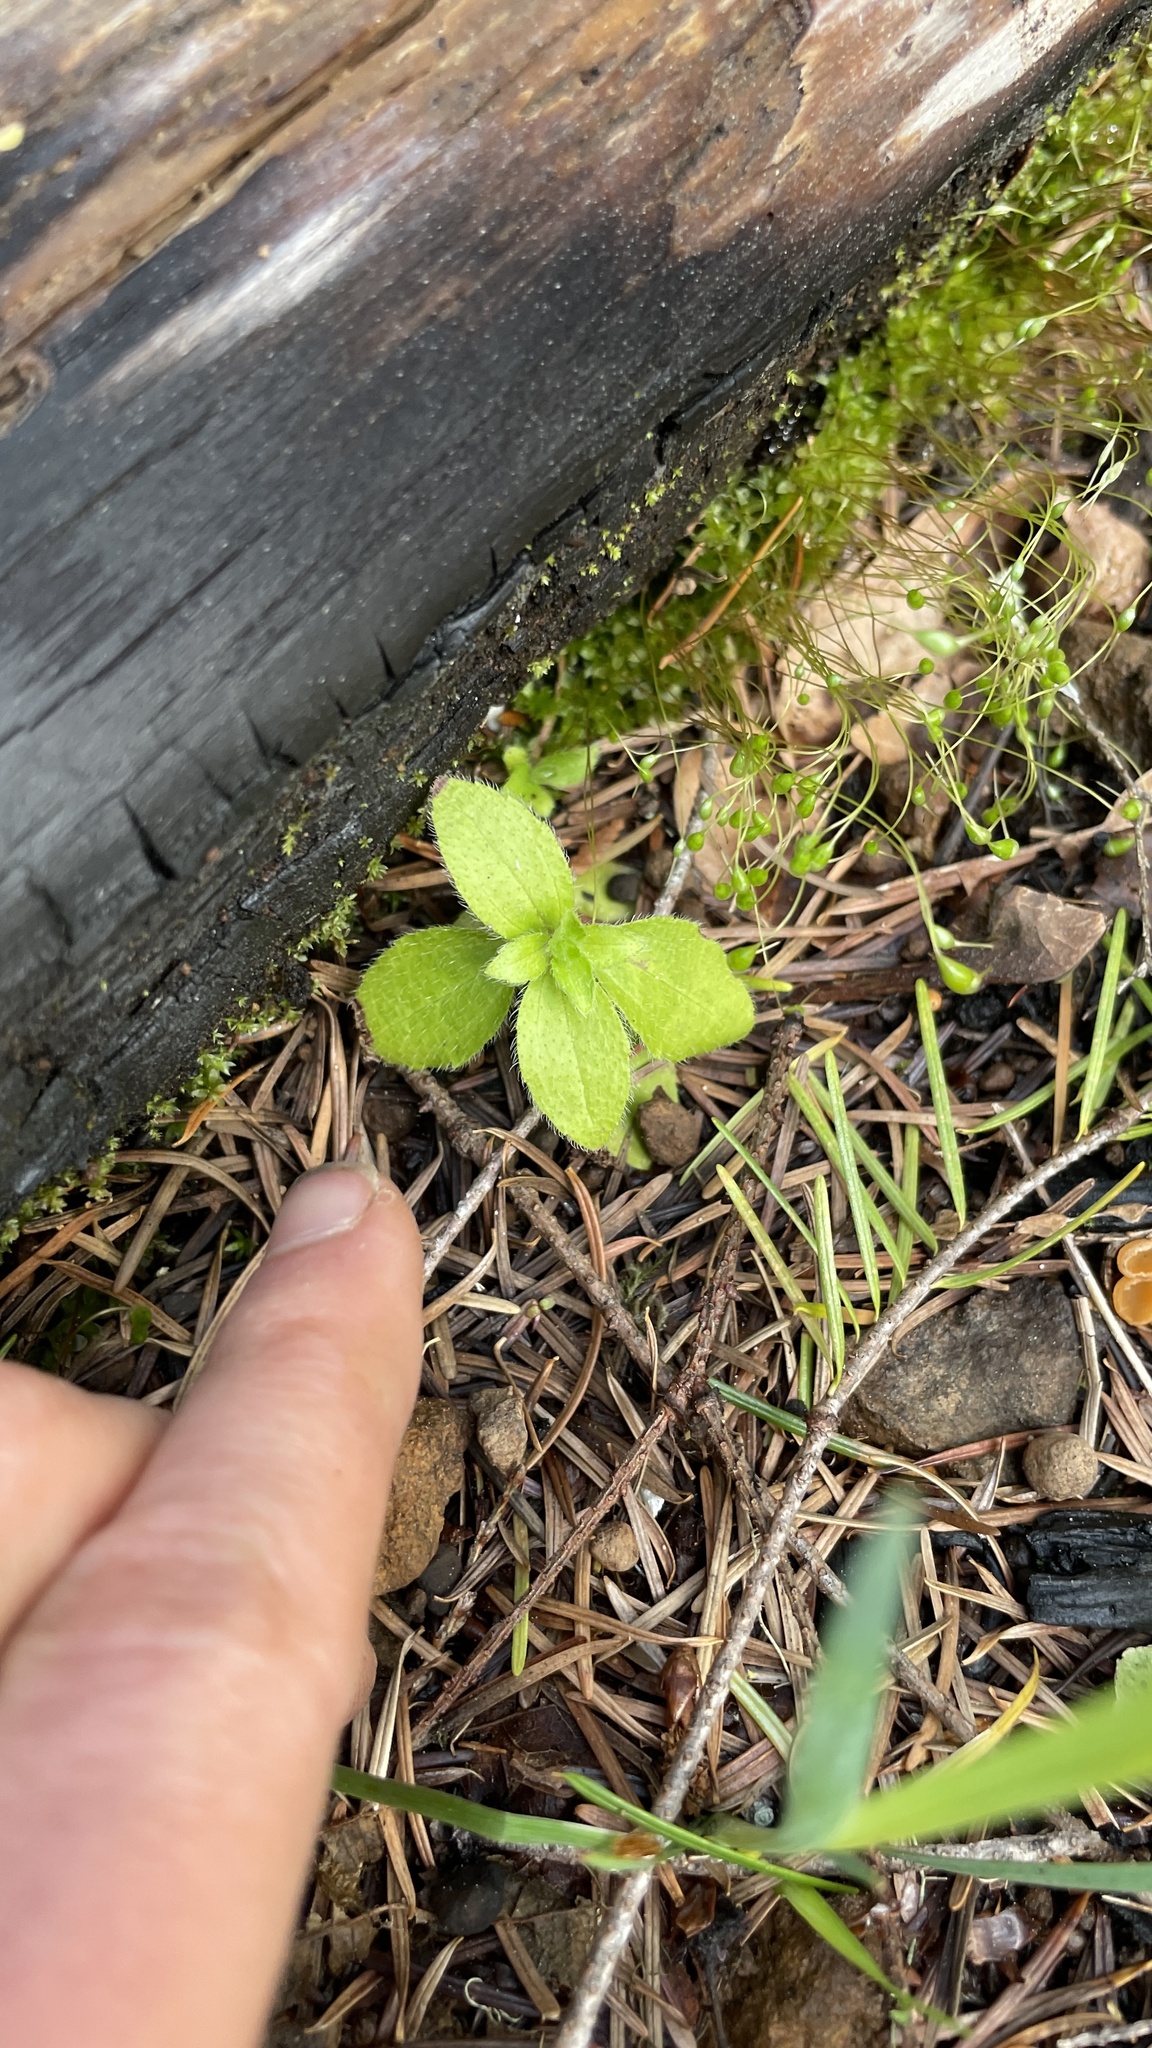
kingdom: Plantae
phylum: Tracheophyta
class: Magnoliopsida
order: Cornales
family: Hydrangeaceae
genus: Whipplea
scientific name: Whipplea modesta
